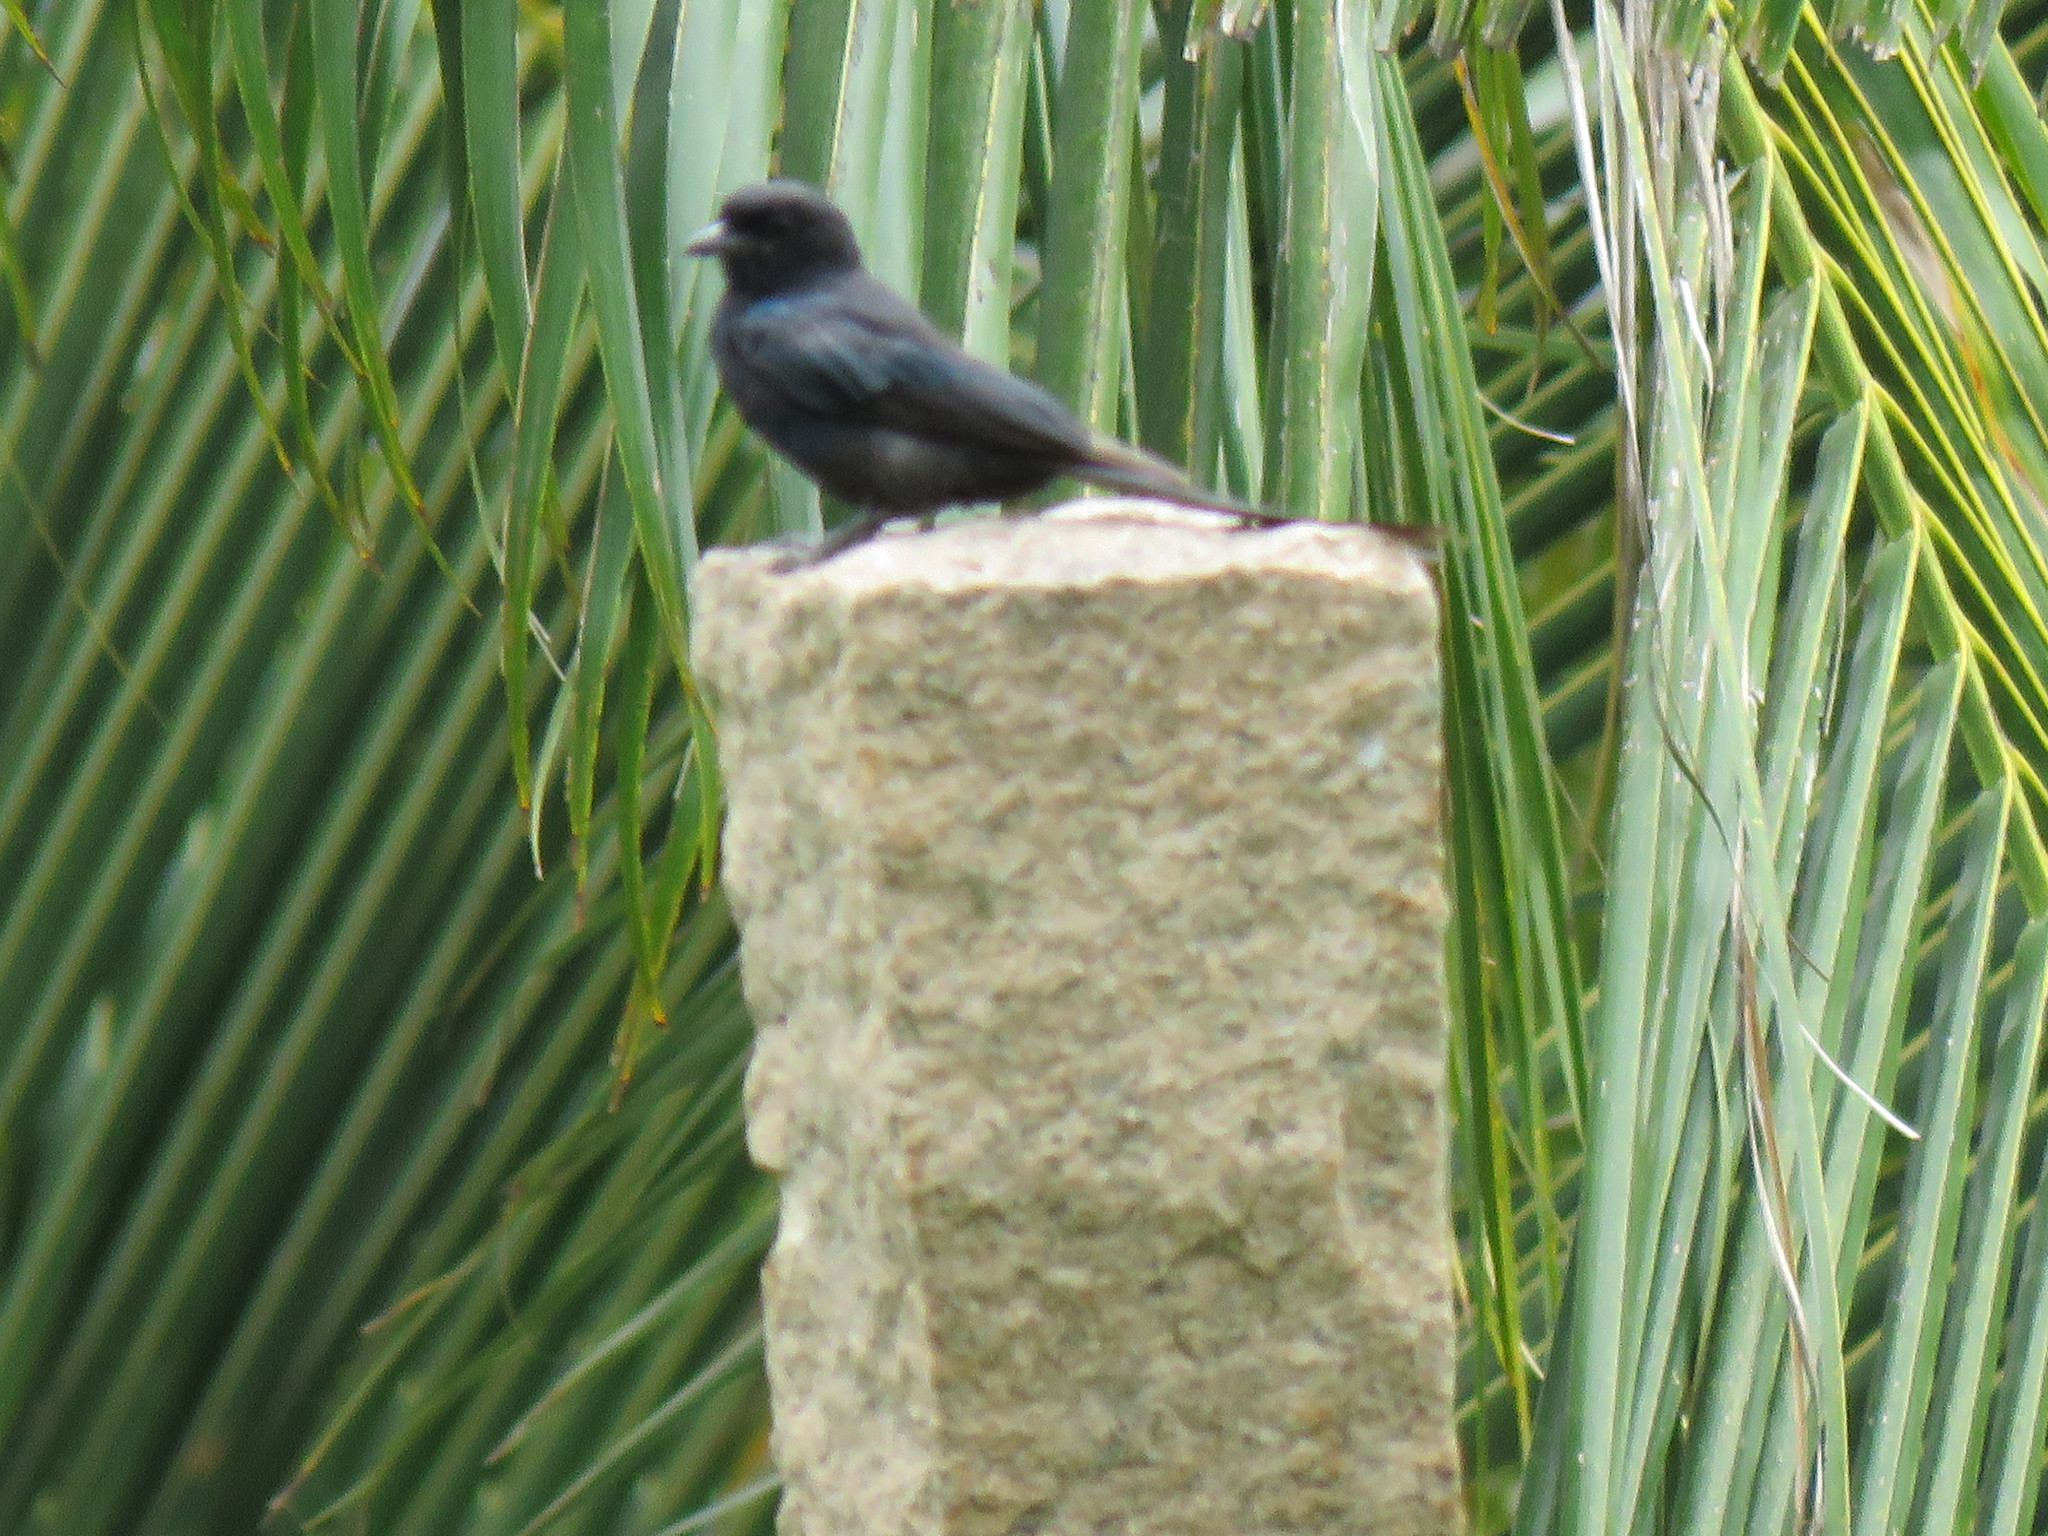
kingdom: Animalia
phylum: Chordata
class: Aves
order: Passeriformes
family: Dicruridae
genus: Dicrurus
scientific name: Dicrurus macrocercus
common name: Black drongo
